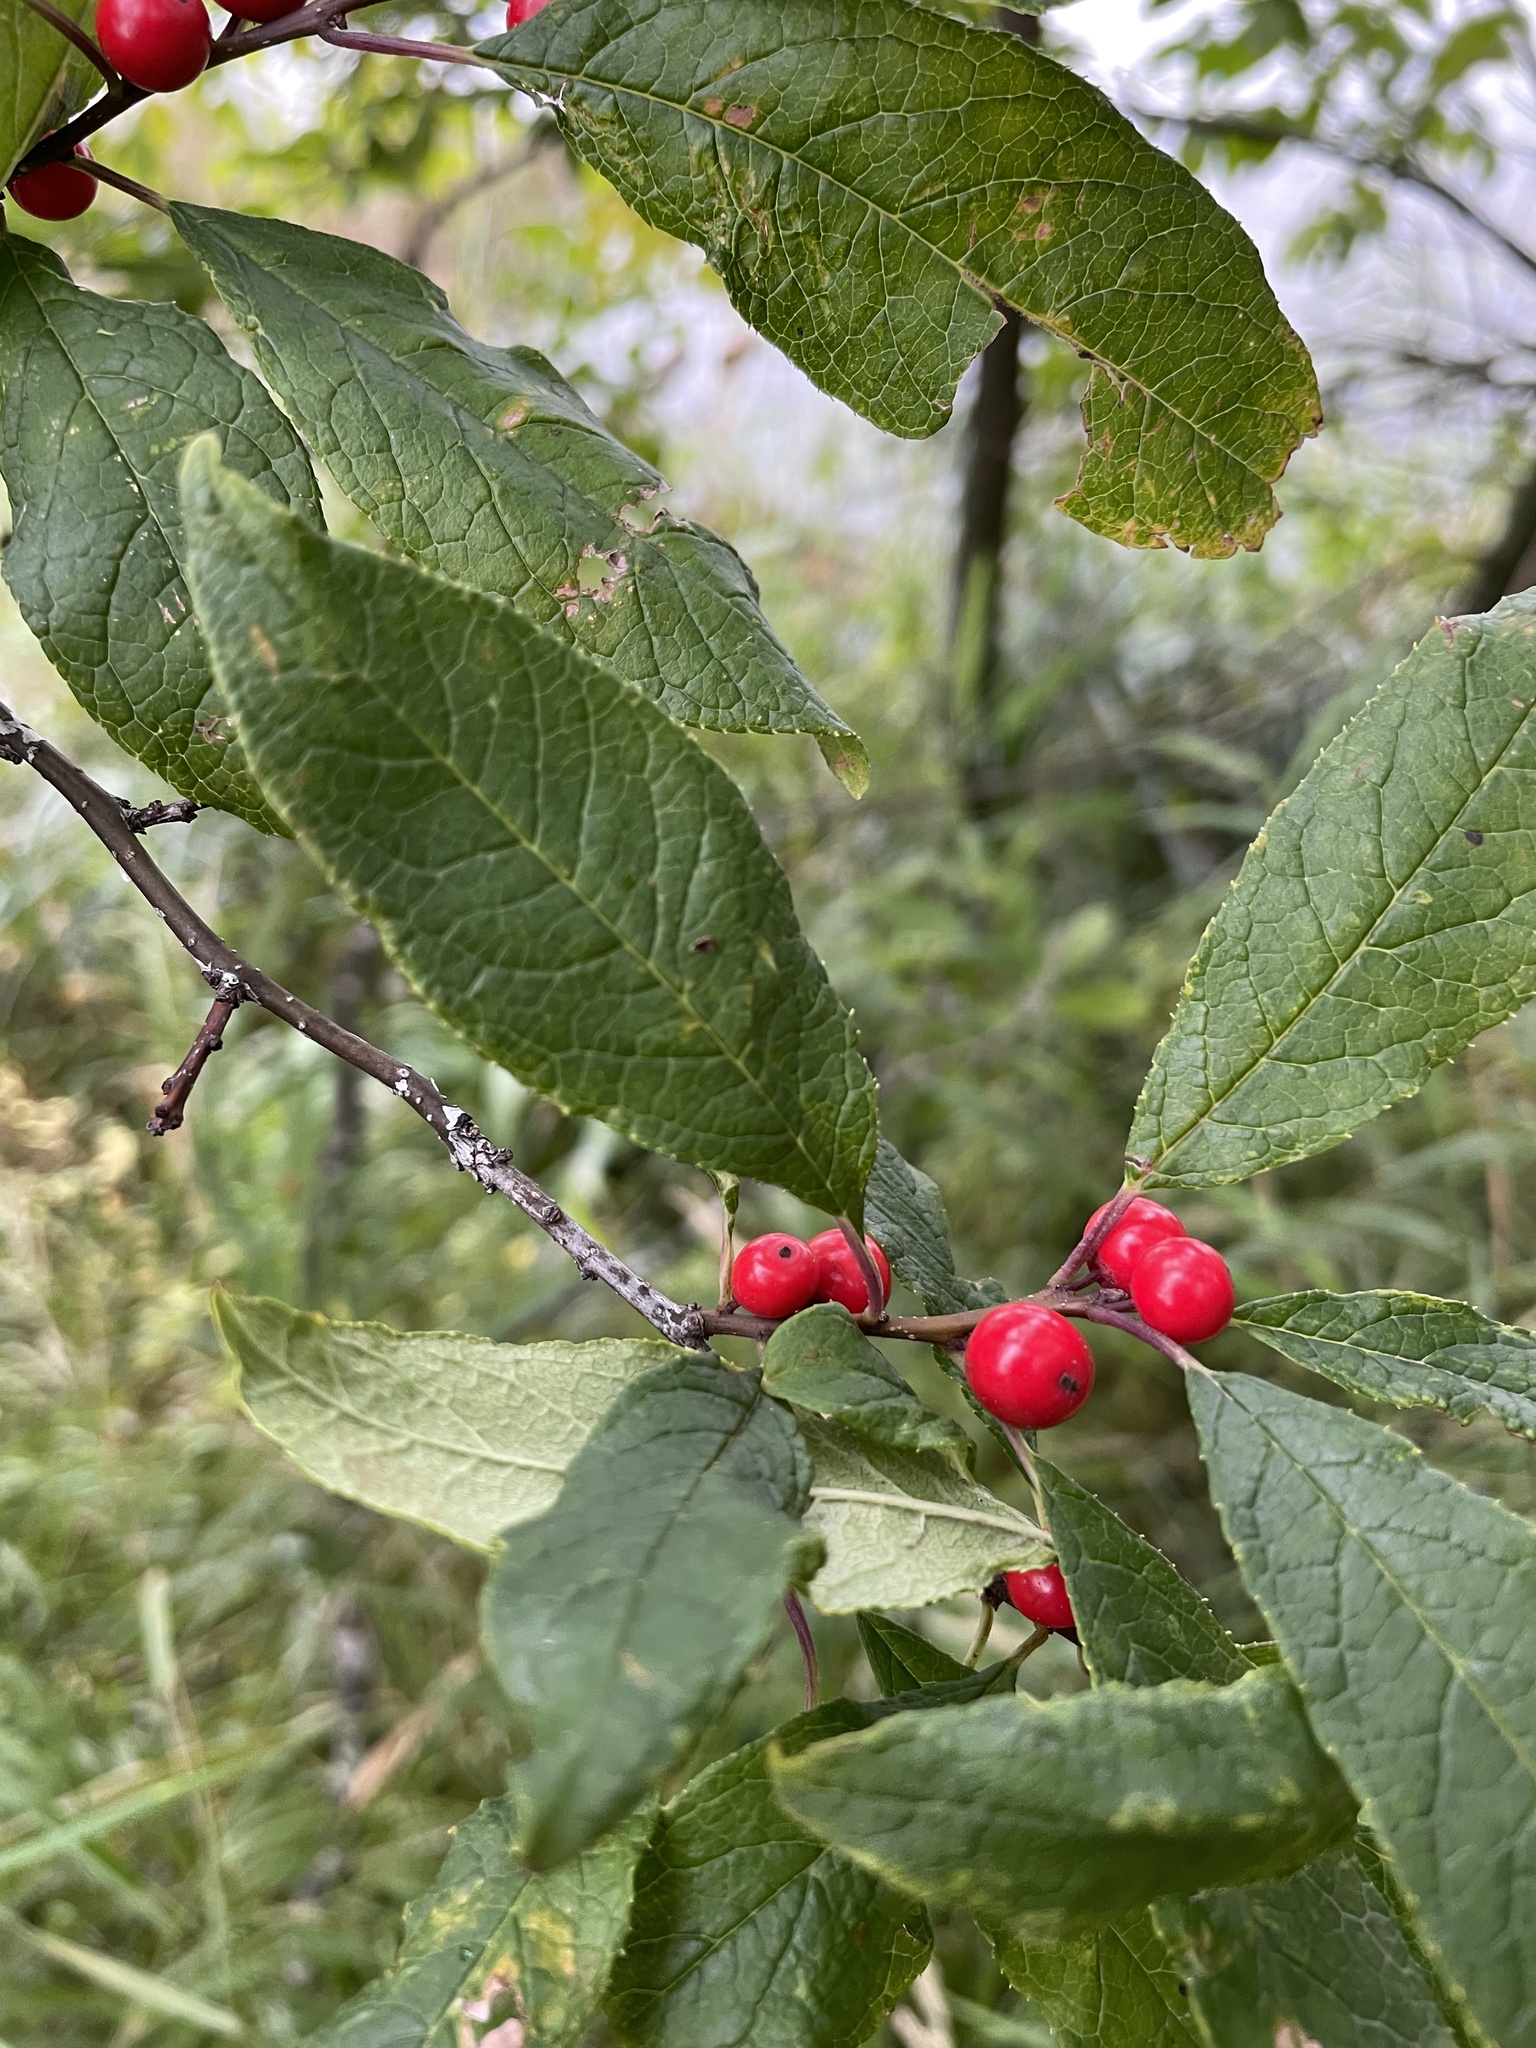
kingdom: Plantae
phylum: Tracheophyta
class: Magnoliopsida
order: Aquifoliales
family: Aquifoliaceae
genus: Ilex
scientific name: Ilex verticillata
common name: Virginia winterberry
